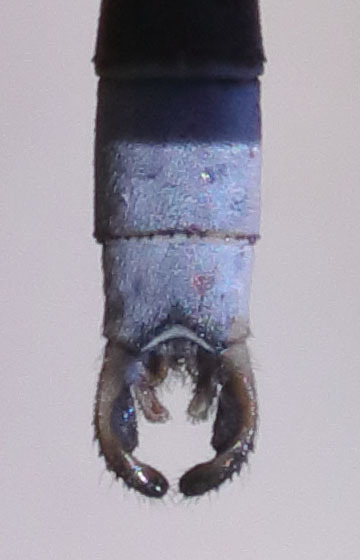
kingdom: Animalia
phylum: Arthropoda
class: Insecta
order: Odonata
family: Lestidae
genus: Lestes
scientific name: Lestes congener
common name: Spotted spreadwing
